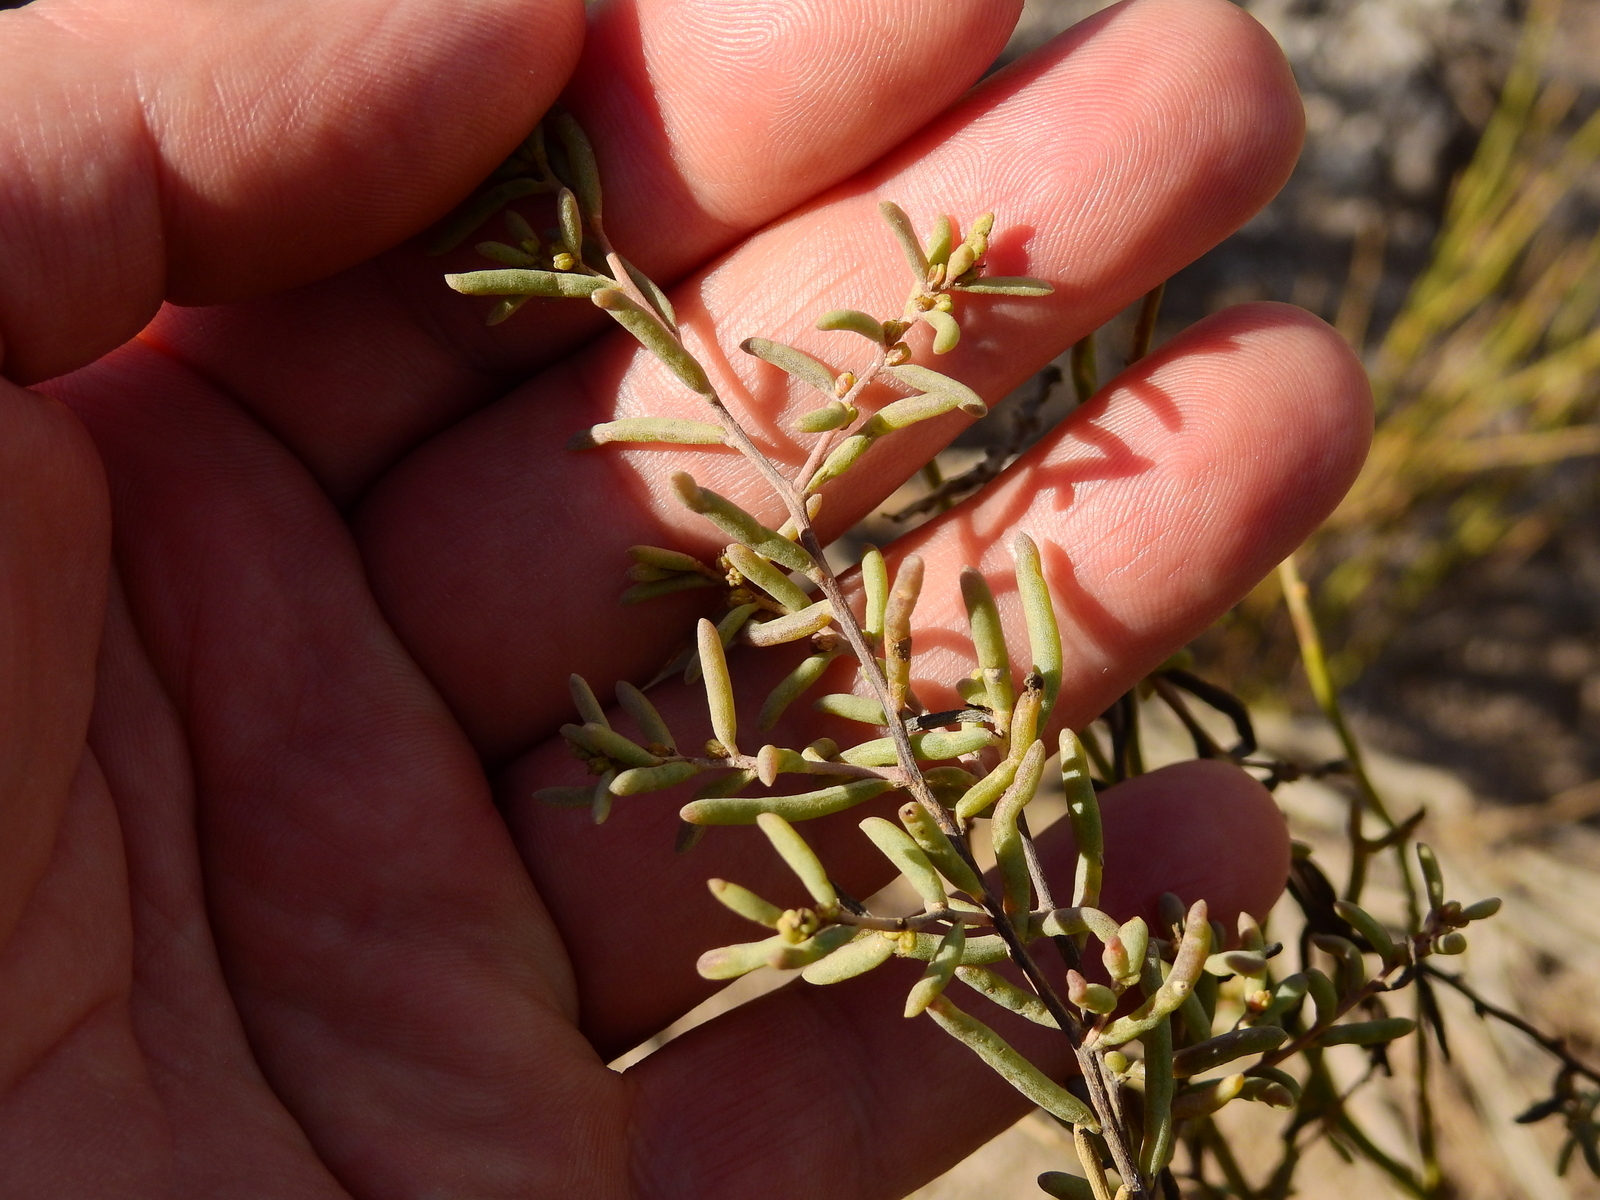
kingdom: Plantae
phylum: Tracheophyta
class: Magnoliopsida
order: Caryophyllales
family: Amaranthaceae
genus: Suaeda
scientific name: Suaeda divaricata
